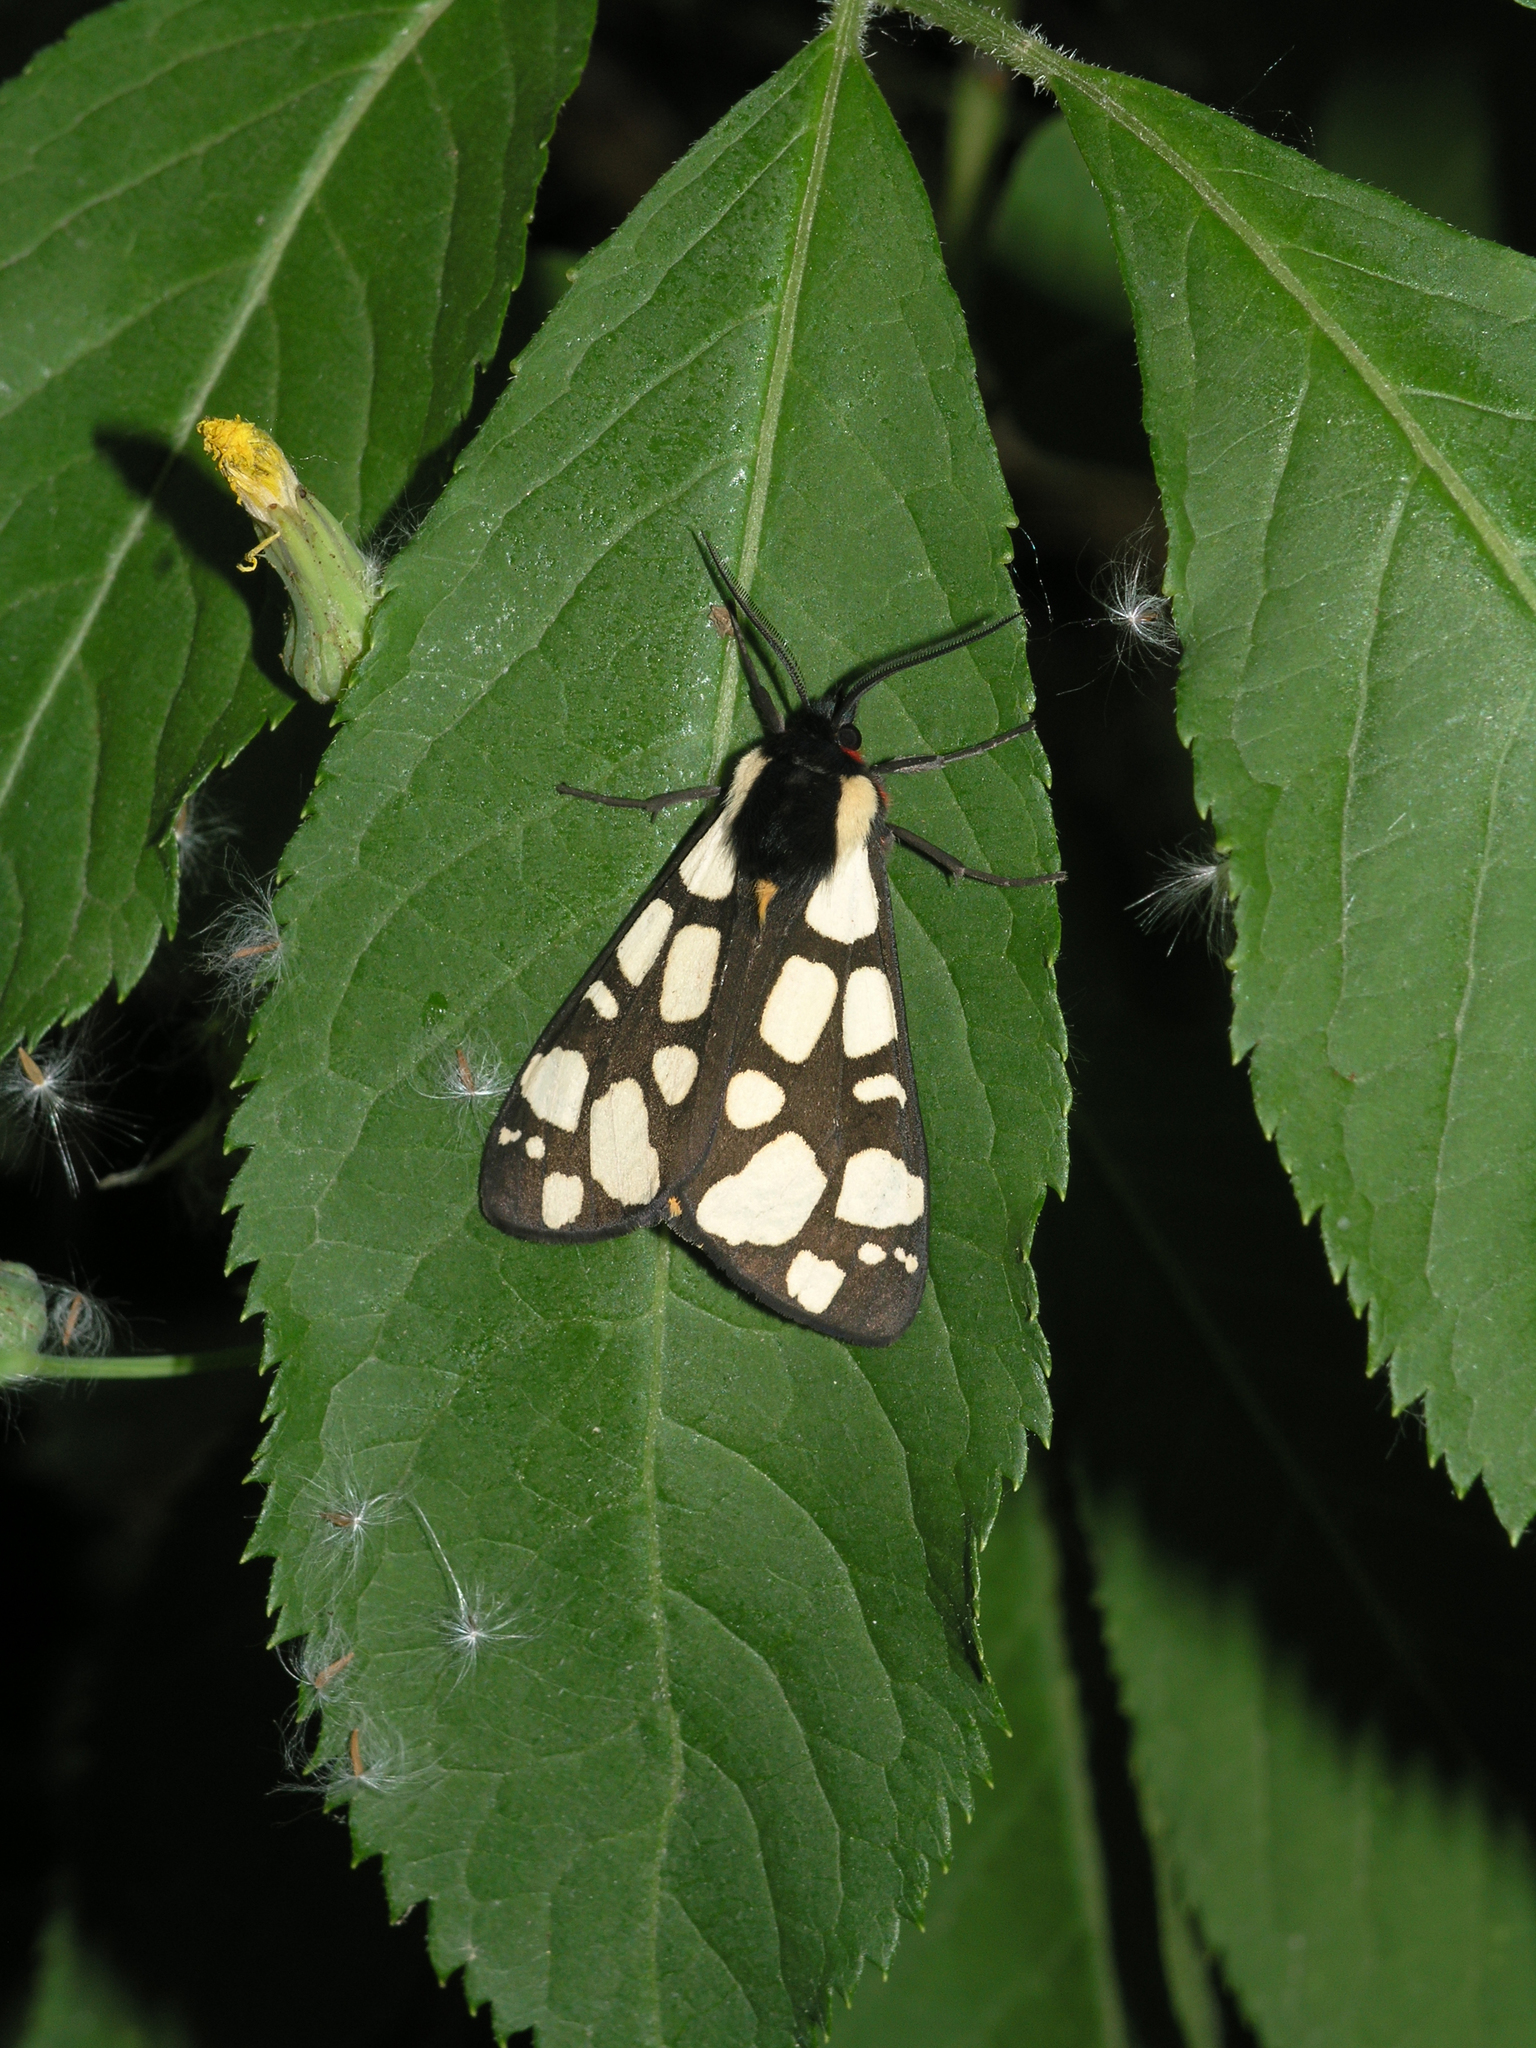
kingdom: Animalia
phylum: Arthropoda
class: Insecta
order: Lepidoptera
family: Erebidae
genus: Epicallia
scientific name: Epicallia villica
